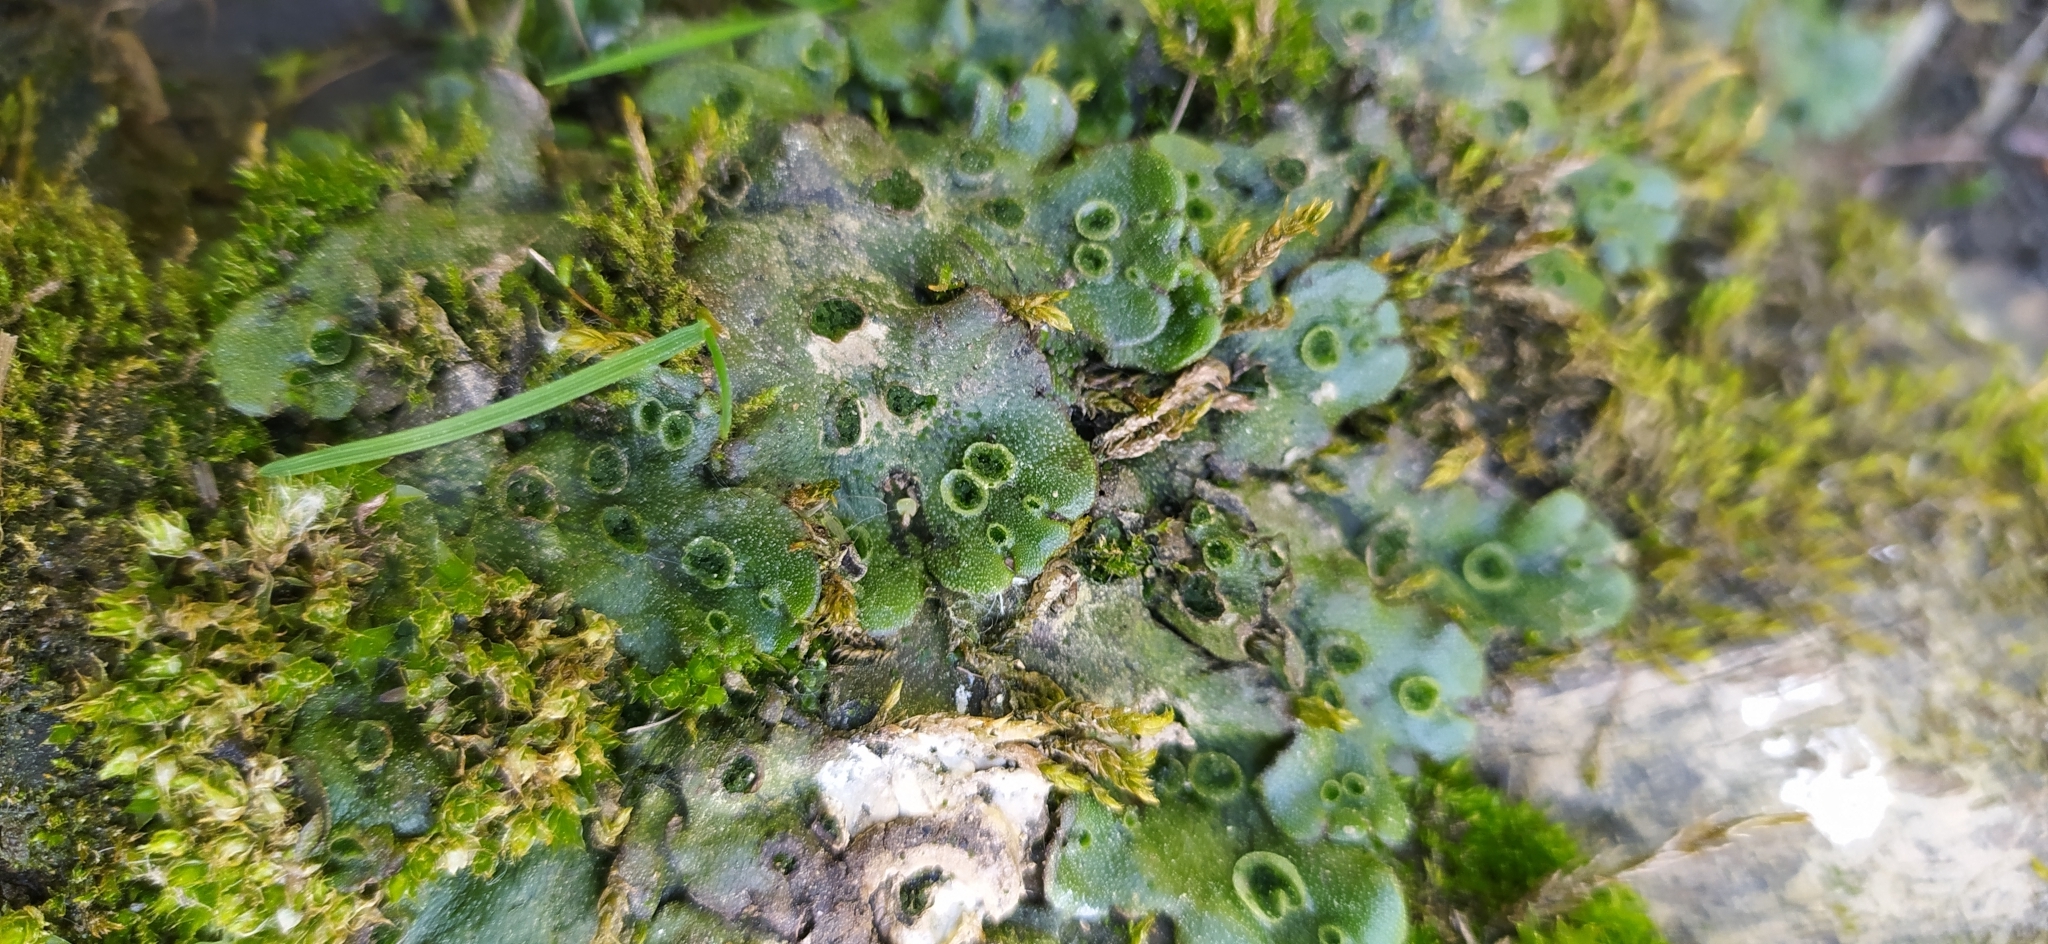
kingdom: Plantae
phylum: Marchantiophyta
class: Marchantiopsida
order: Marchantiales
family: Marchantiaceae
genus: Marchantia
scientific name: Marchantia polymorpha
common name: Common liverwort
